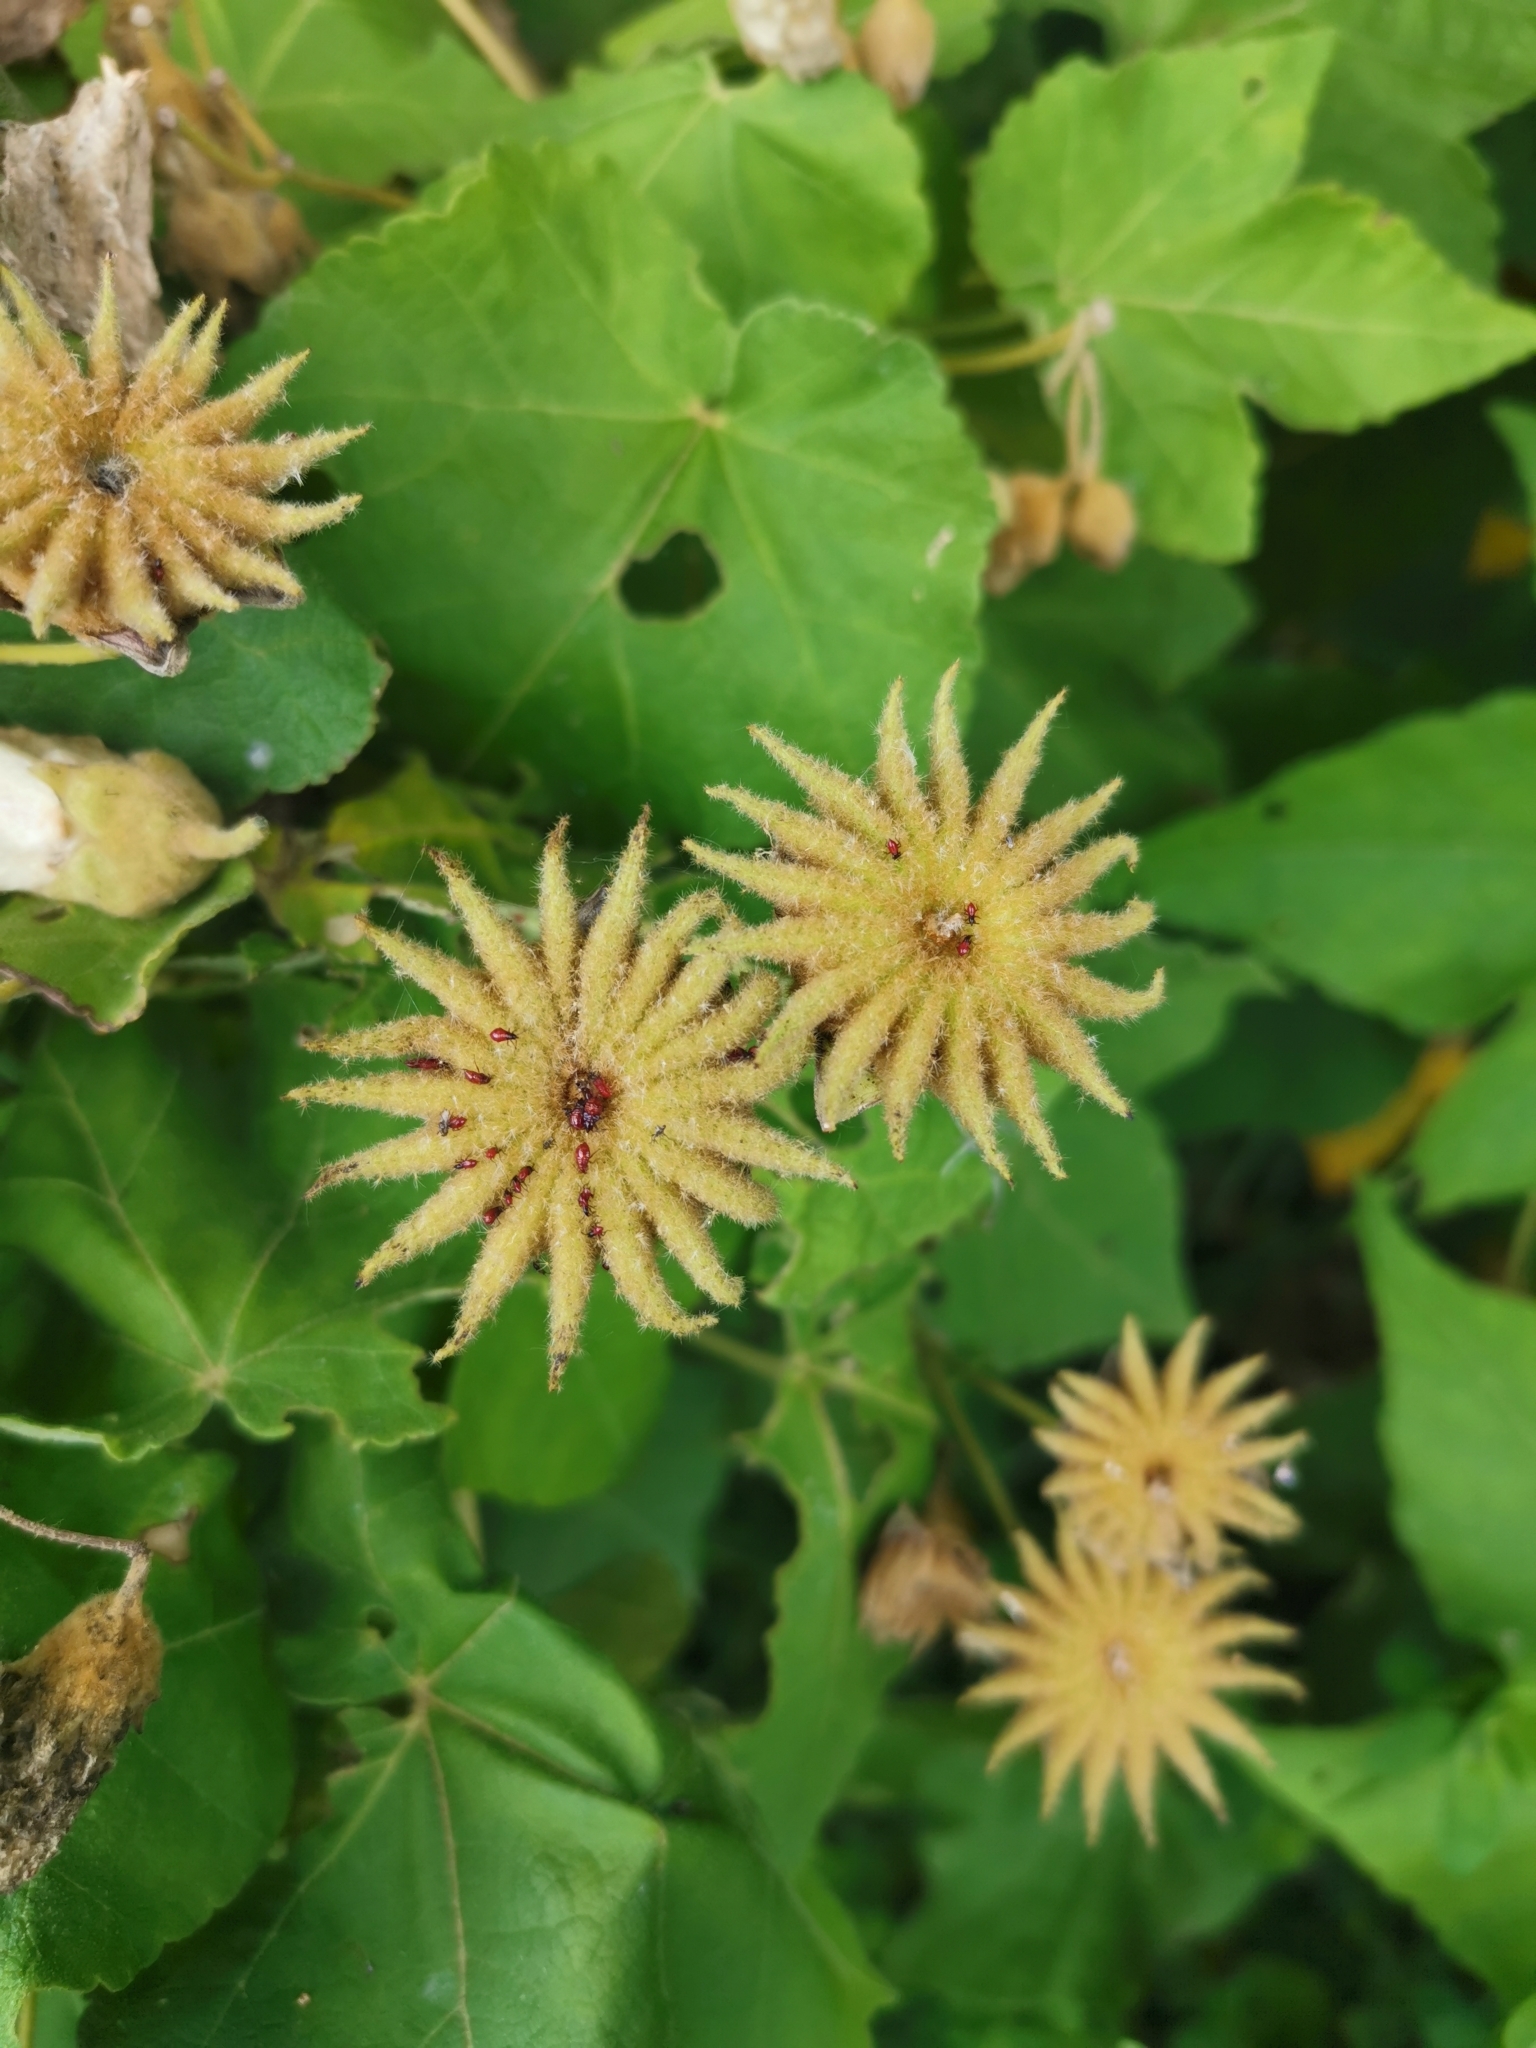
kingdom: Plantae
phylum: Tracheophyta
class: Magnoliopsida
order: Malvales
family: Malvaceae
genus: Corynabutilon
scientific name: Corynabutilon vitifolium
